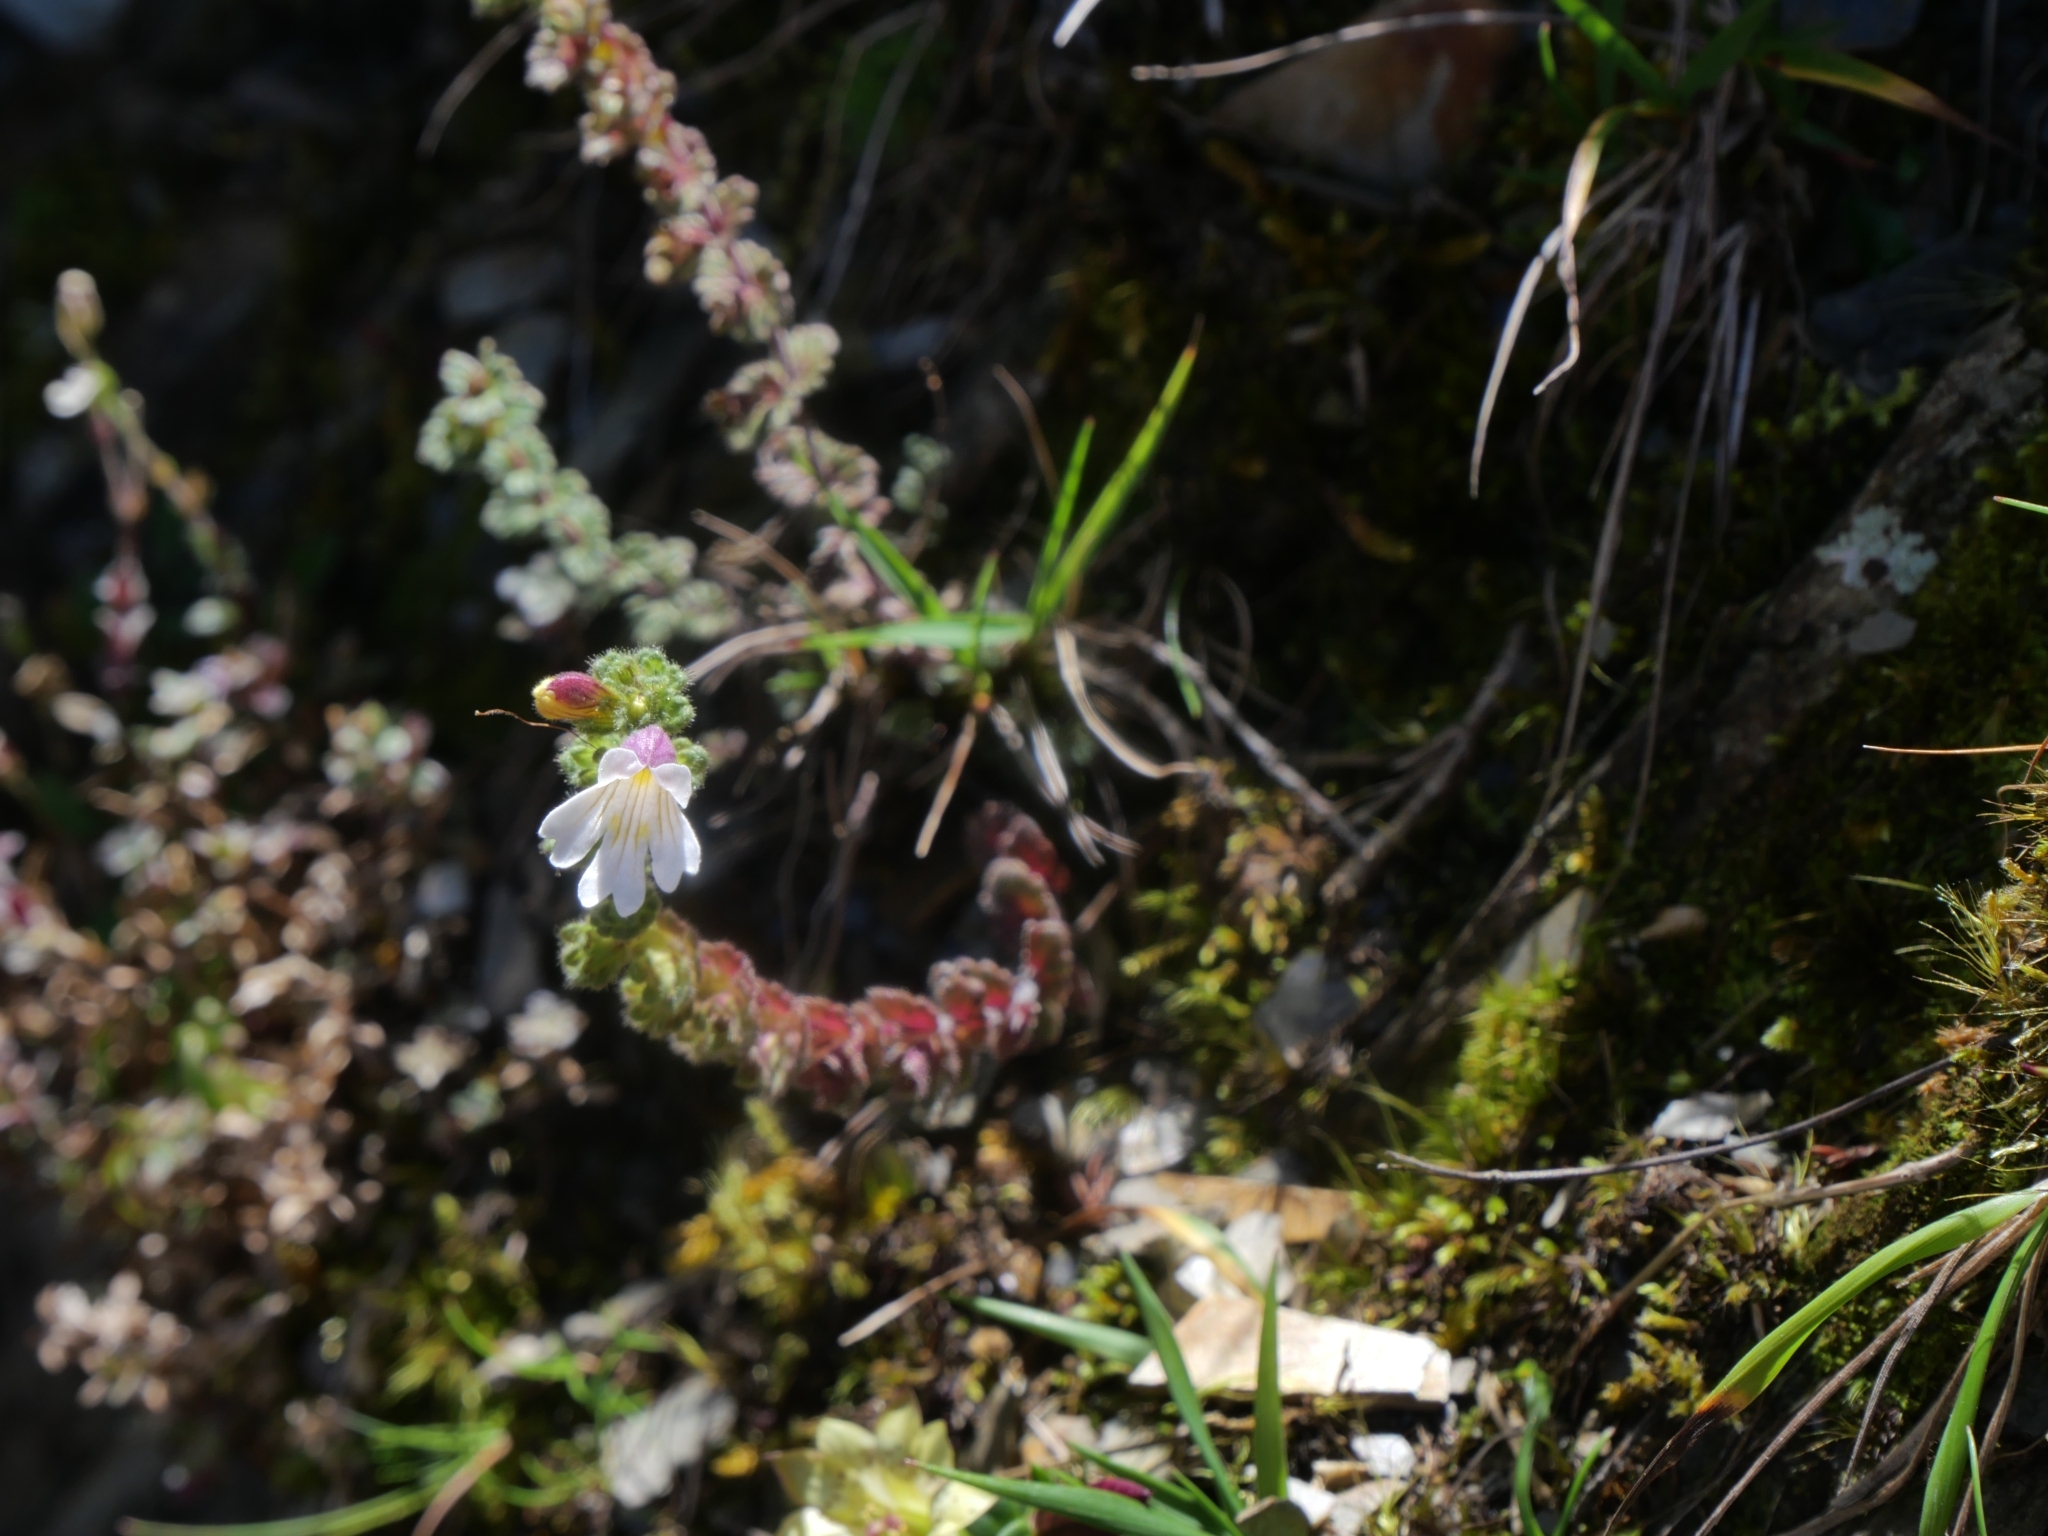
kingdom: Plantae
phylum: Tracheophyta
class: Magnoliopsida
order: Lamiales
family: Orobanchaceae
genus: Euphrasia
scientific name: Euphrasia transmorrisonensis
